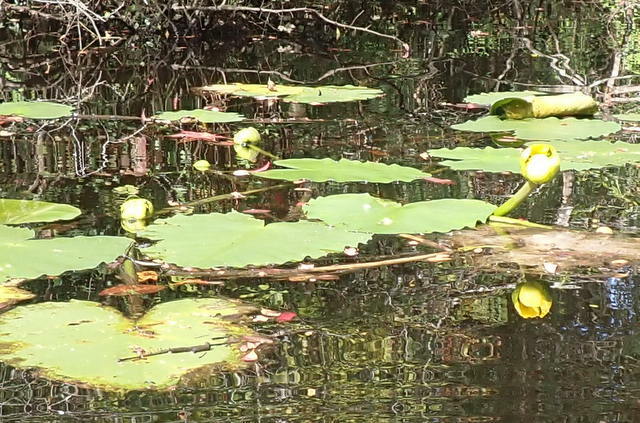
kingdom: Plantae
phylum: Tracheophyta
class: Magnoliopsida
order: Nymphaeales
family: Nymphaeaceae
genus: Nuphar
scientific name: Nuphar advena
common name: Spatter-dock
